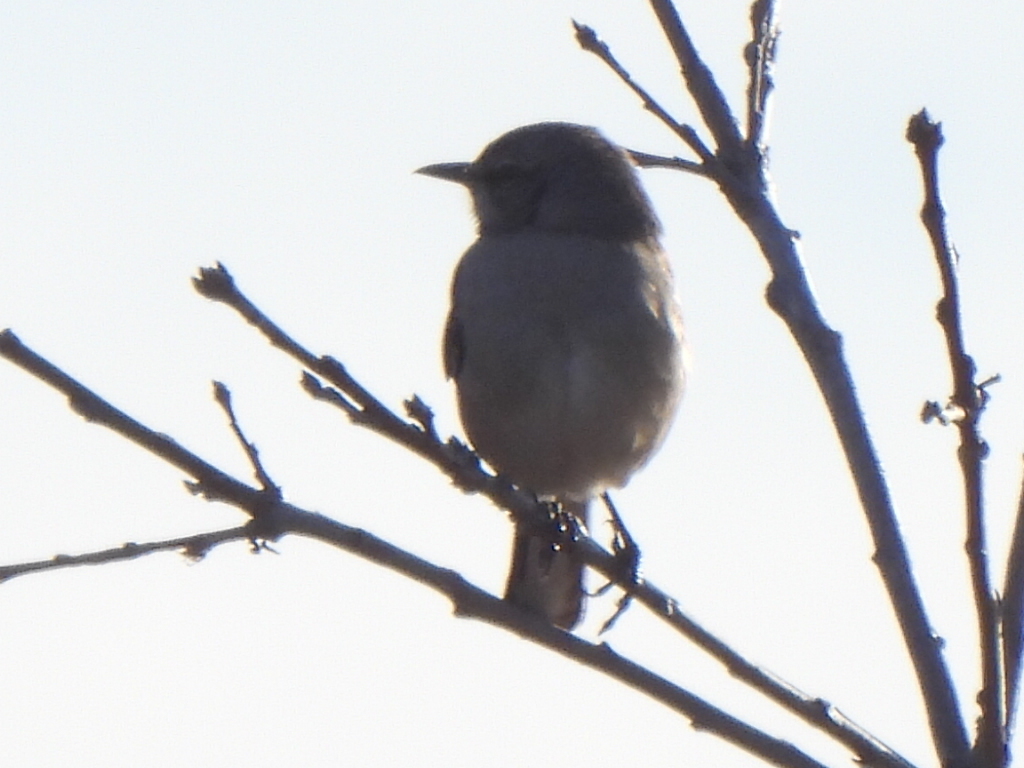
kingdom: Animalia
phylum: Chordata
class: Aves
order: Passeriformes
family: Mimidae
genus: Mimus
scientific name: Mimus polyglottos
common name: Northern mockingbird
